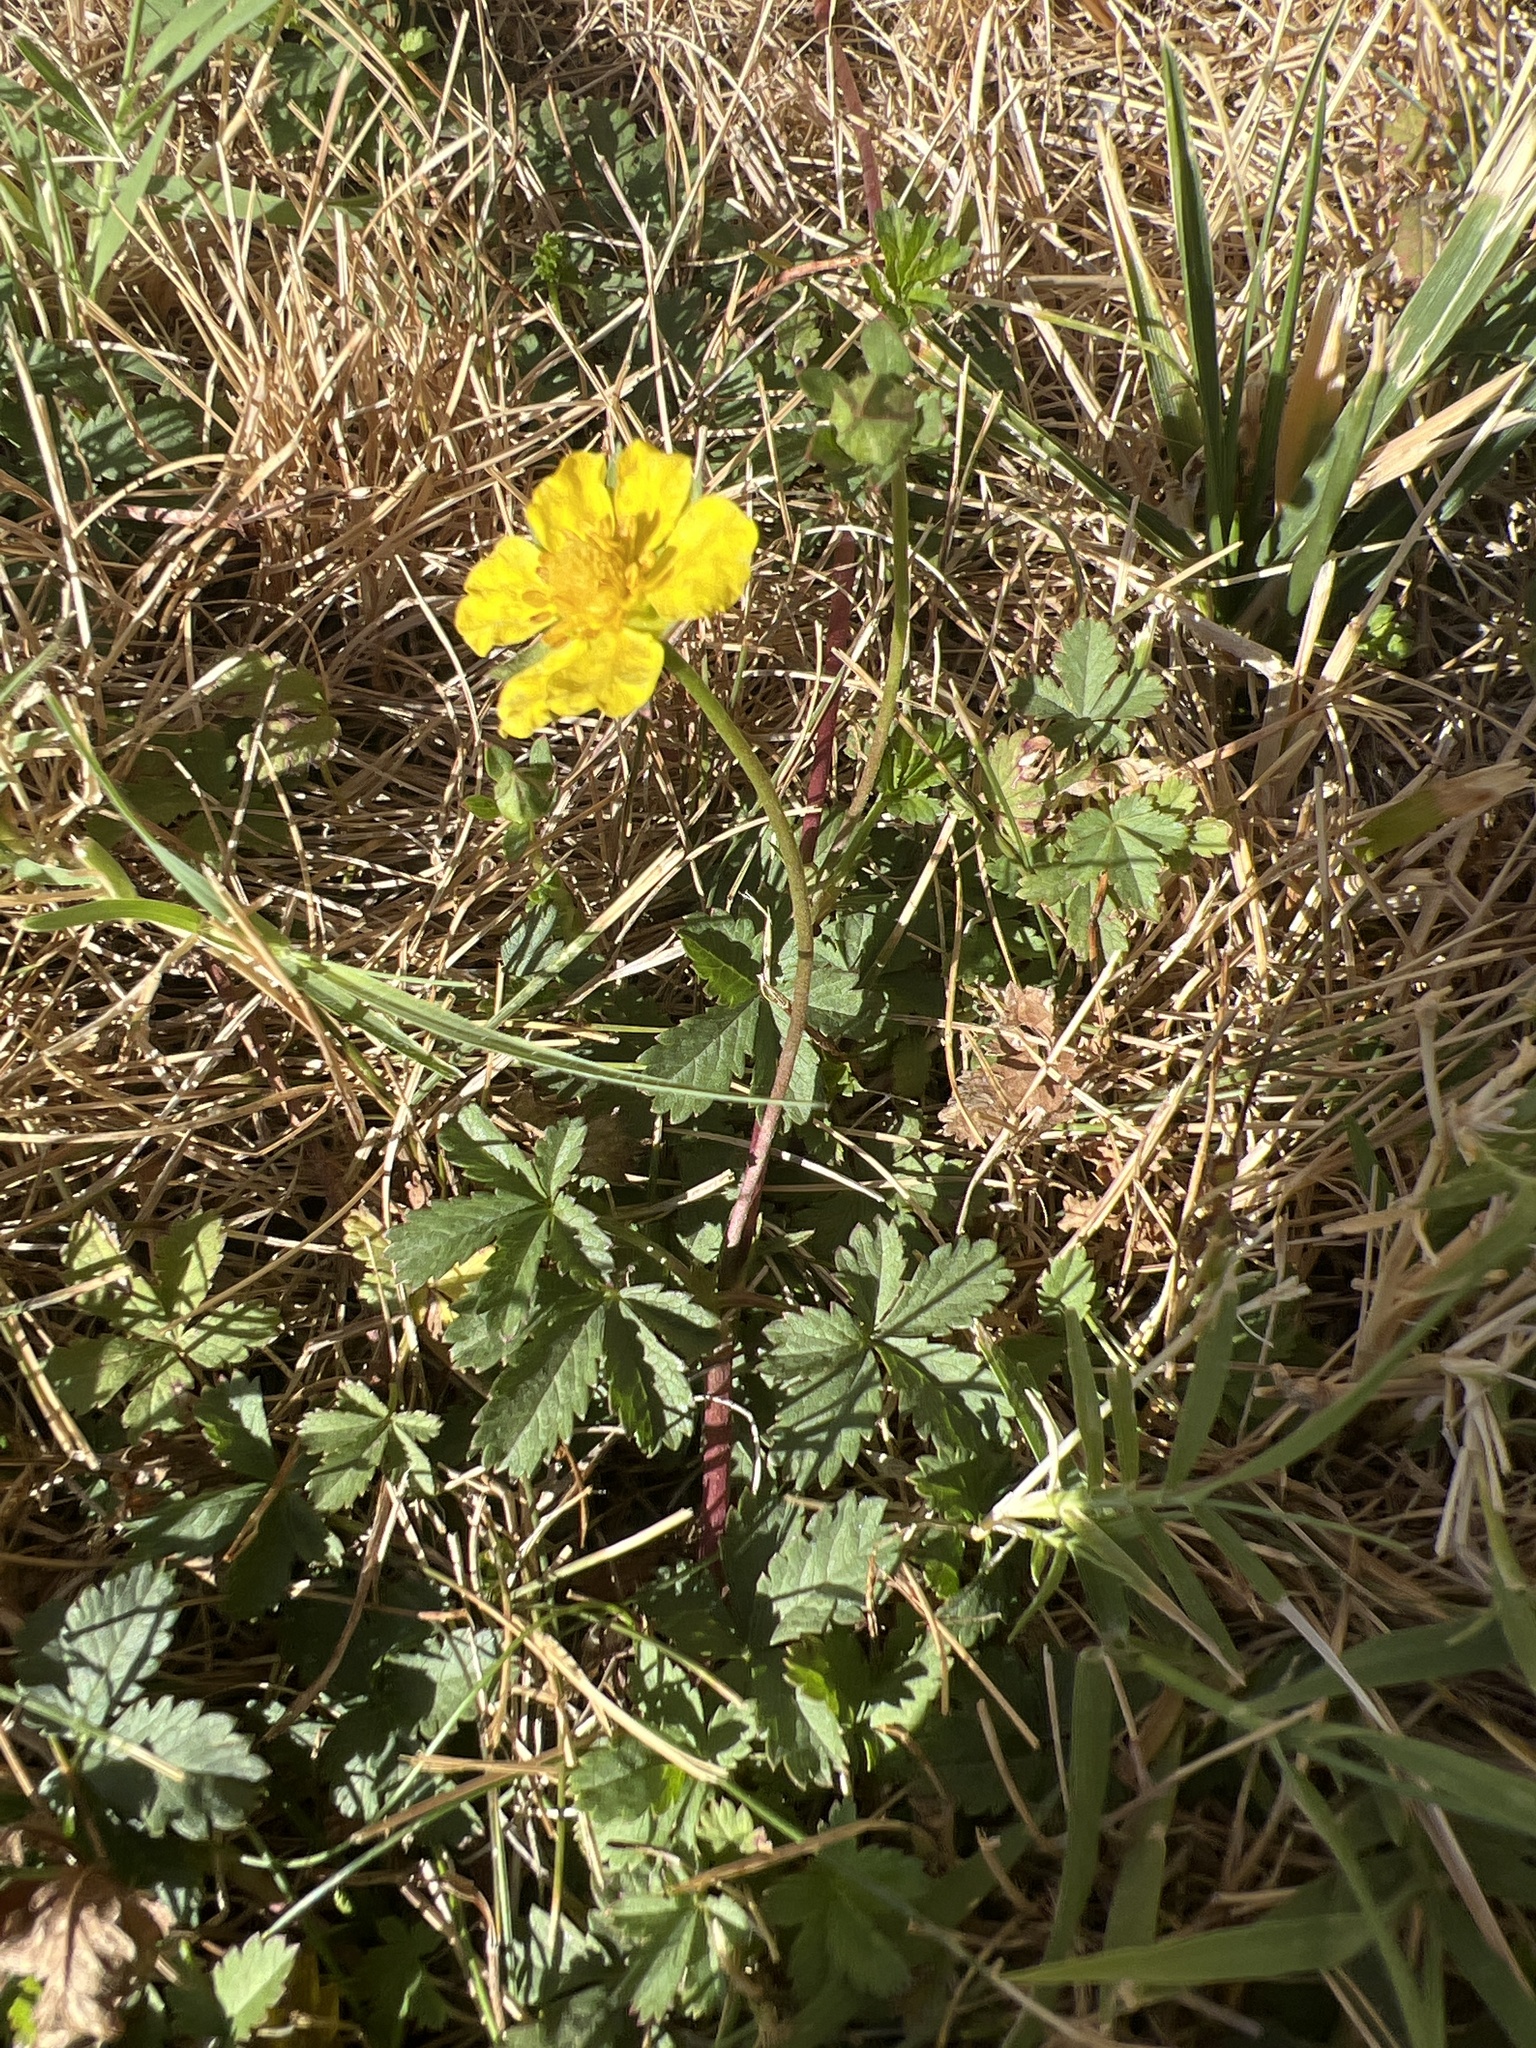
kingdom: Plantae
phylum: Tracheophyta
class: Magnoliopsida
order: Rosales
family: Rosaceae
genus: Potentilla
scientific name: Potentilla reptans
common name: Creeping cinquefoil
